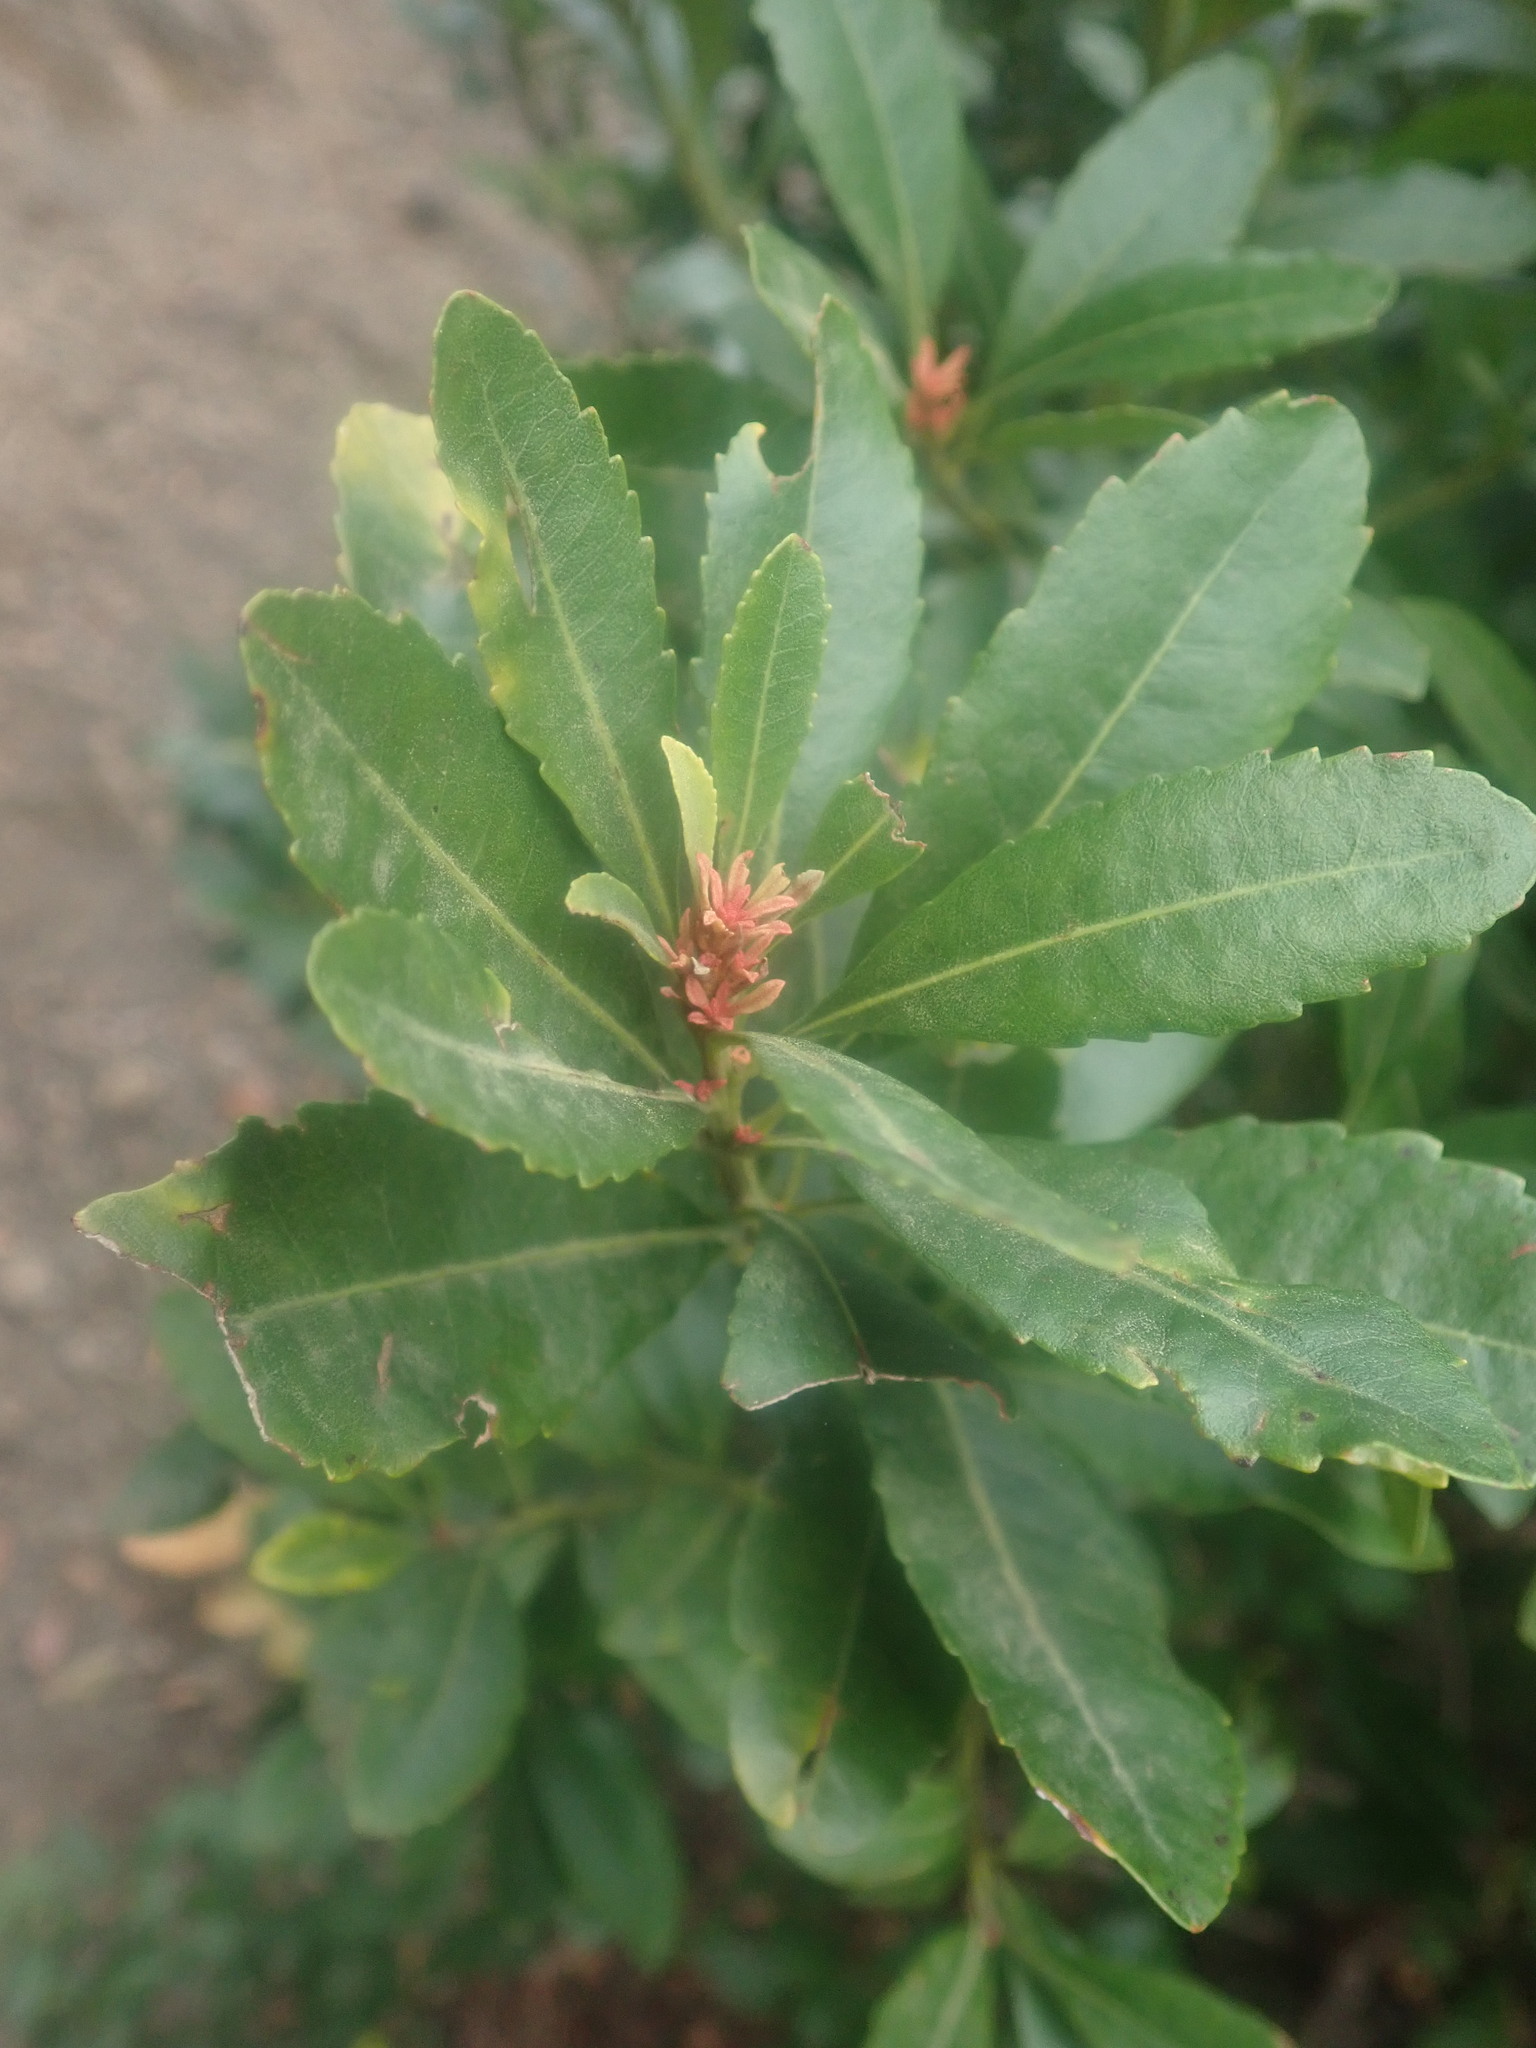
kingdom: Plantae
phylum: Tracheophyta
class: Magnoliopsida
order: Fagales
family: Myricaceae
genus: Morella
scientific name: Morella faya
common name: Firetree
